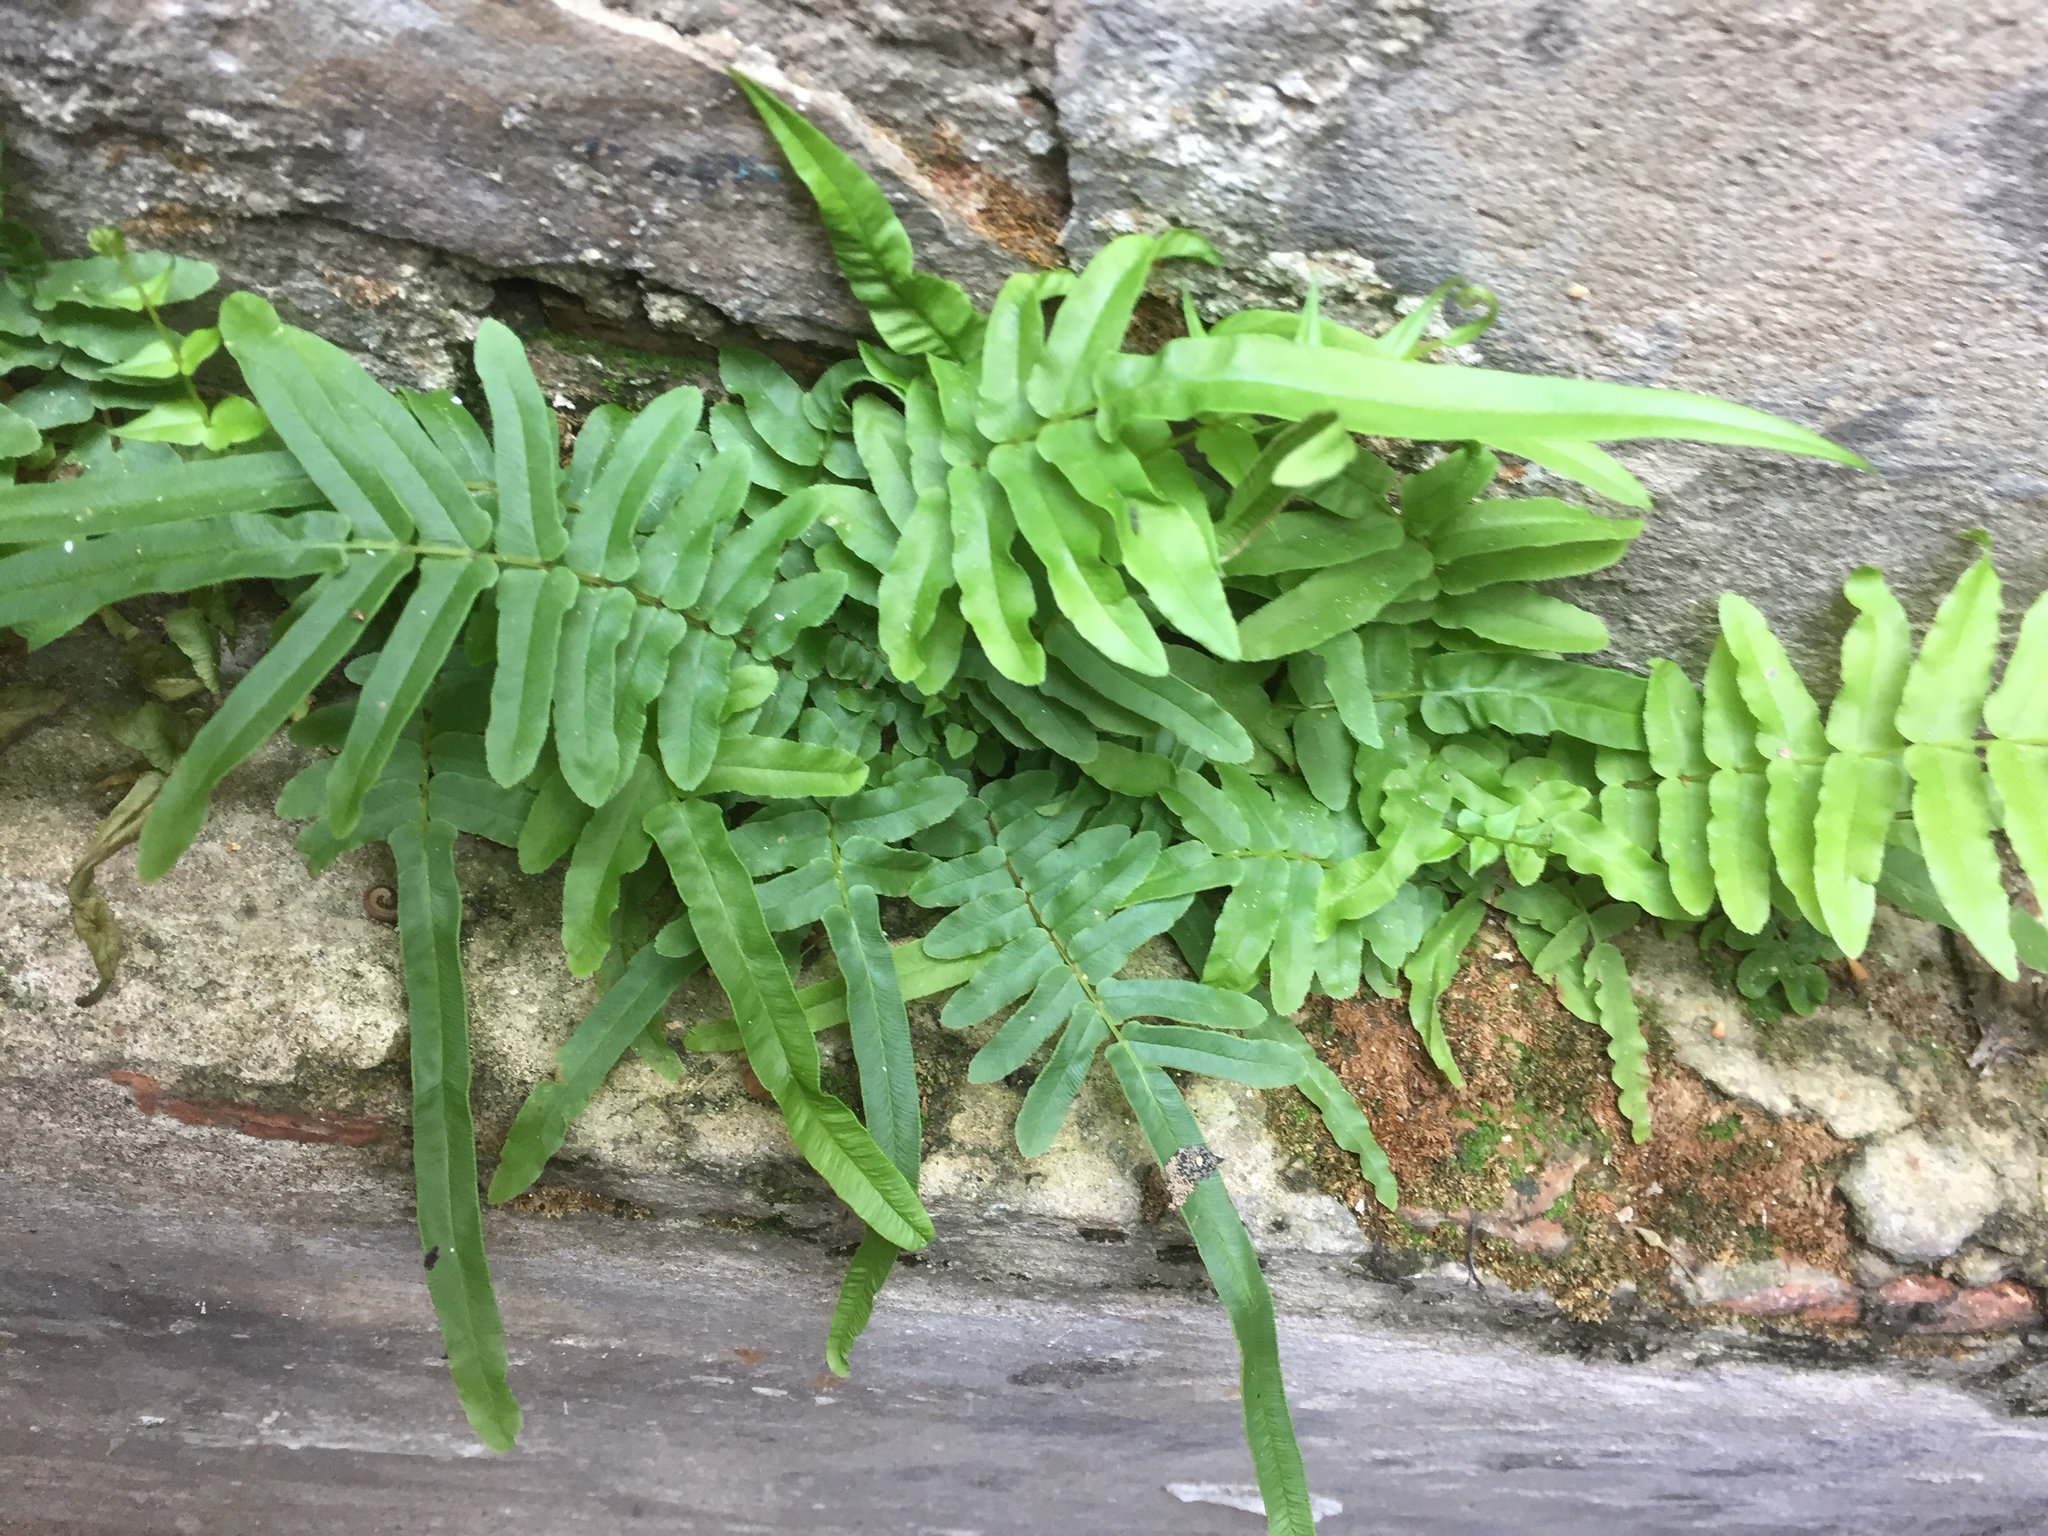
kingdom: Plantae
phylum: Tracheophyta
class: Polypodiopsida
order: Polypodiales
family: Pteridaceae
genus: Pteris
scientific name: Pteris vittata
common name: Ladder brake
